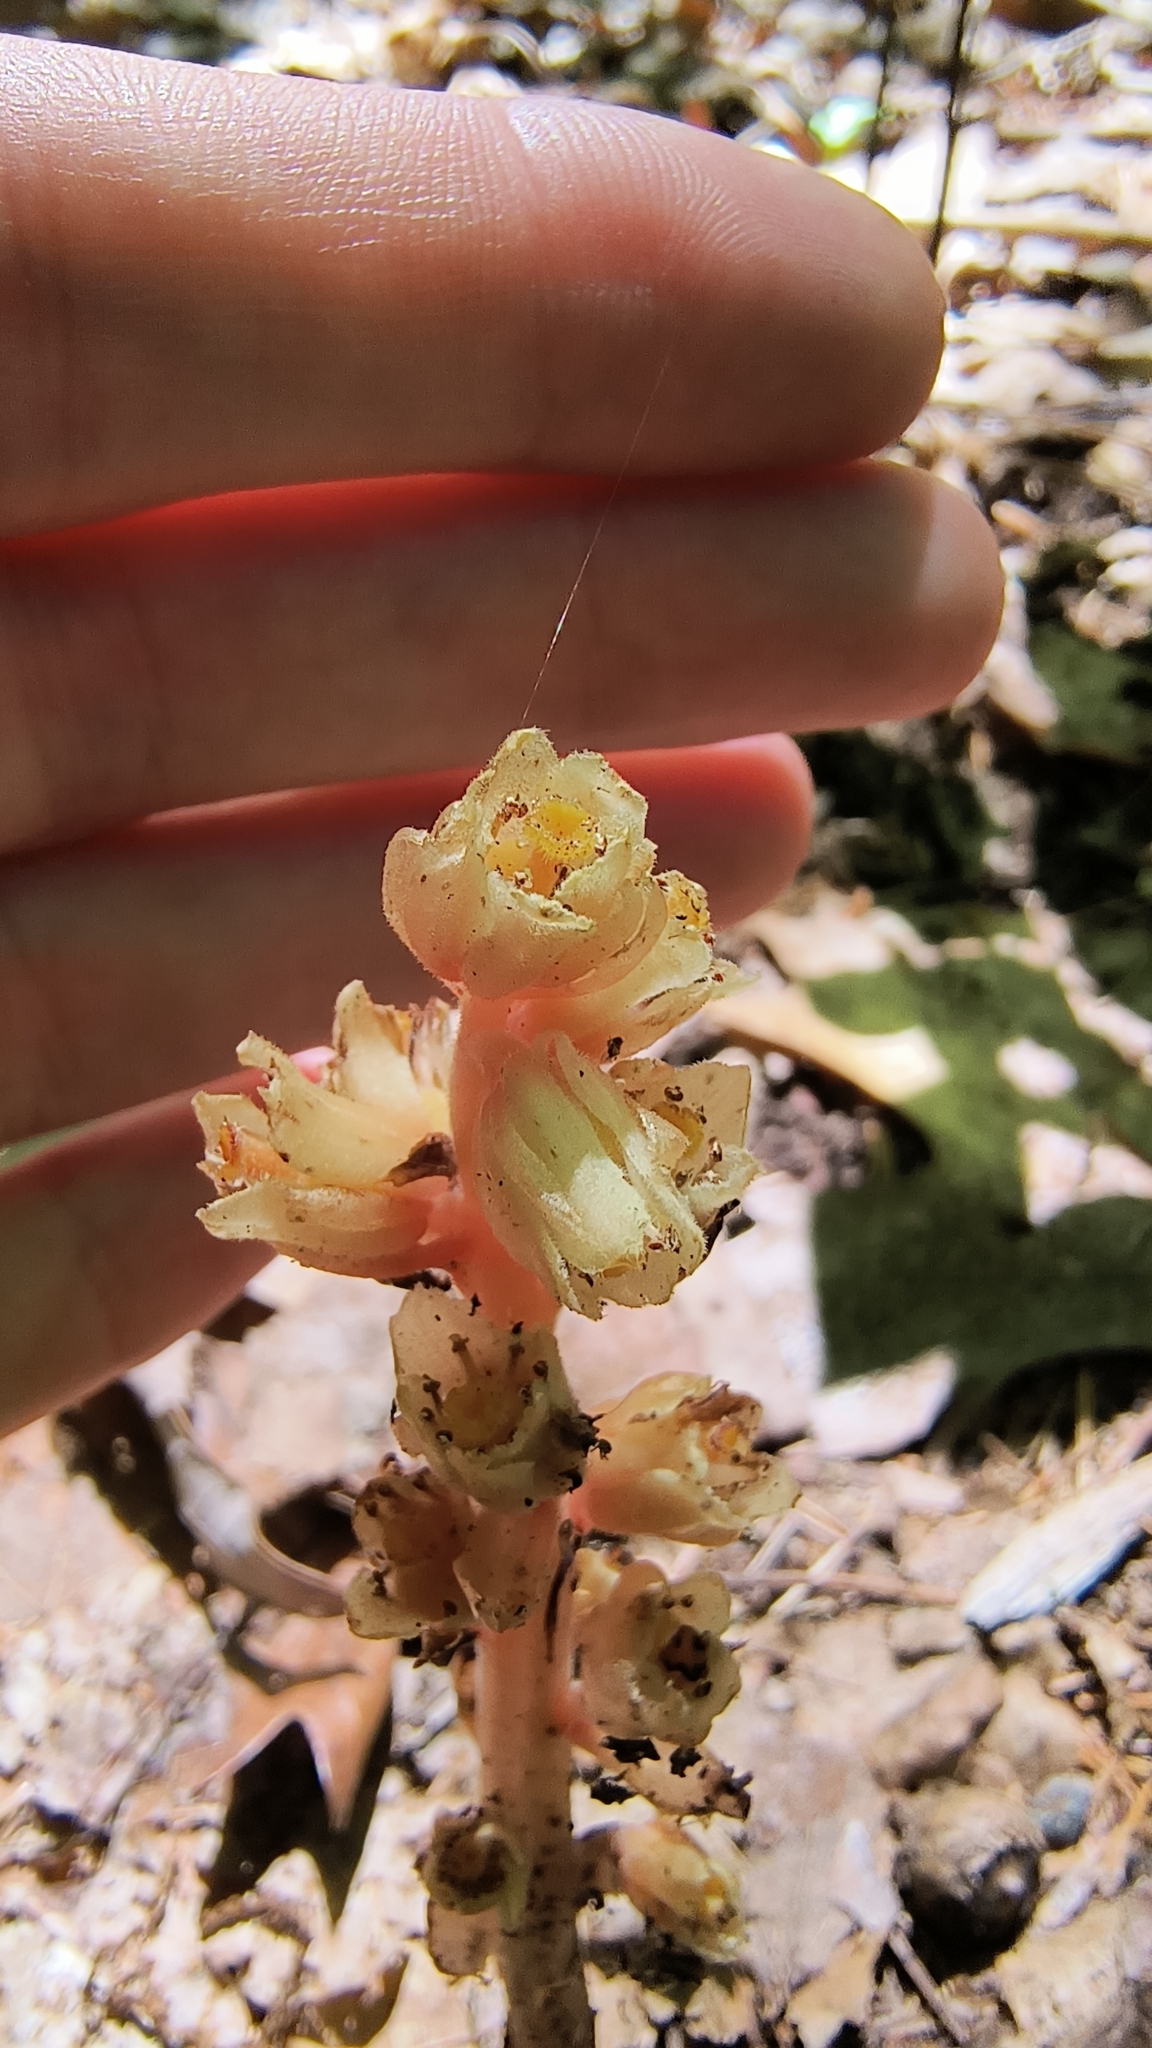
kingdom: Plantae
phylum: Tracheophyta
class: Magnoliopsida
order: Ericales
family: Ericaceae
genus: Hypopitys
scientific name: Hypopitys monotropa
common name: Yellow bird's-nest
